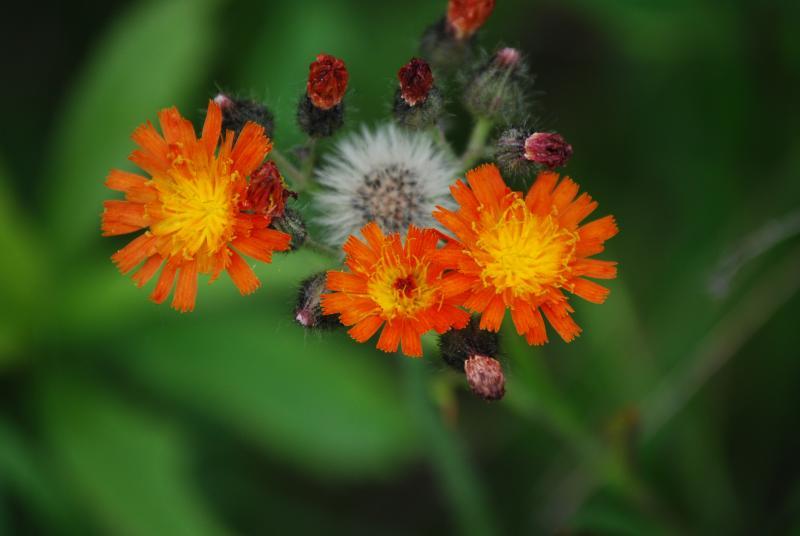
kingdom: Plantae
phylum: Tracheophyta
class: Magnoliopsida
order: Asterales
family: Asteraceae
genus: Pilosella
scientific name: Pilosella aurantiaca
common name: Fox-and-cubs
